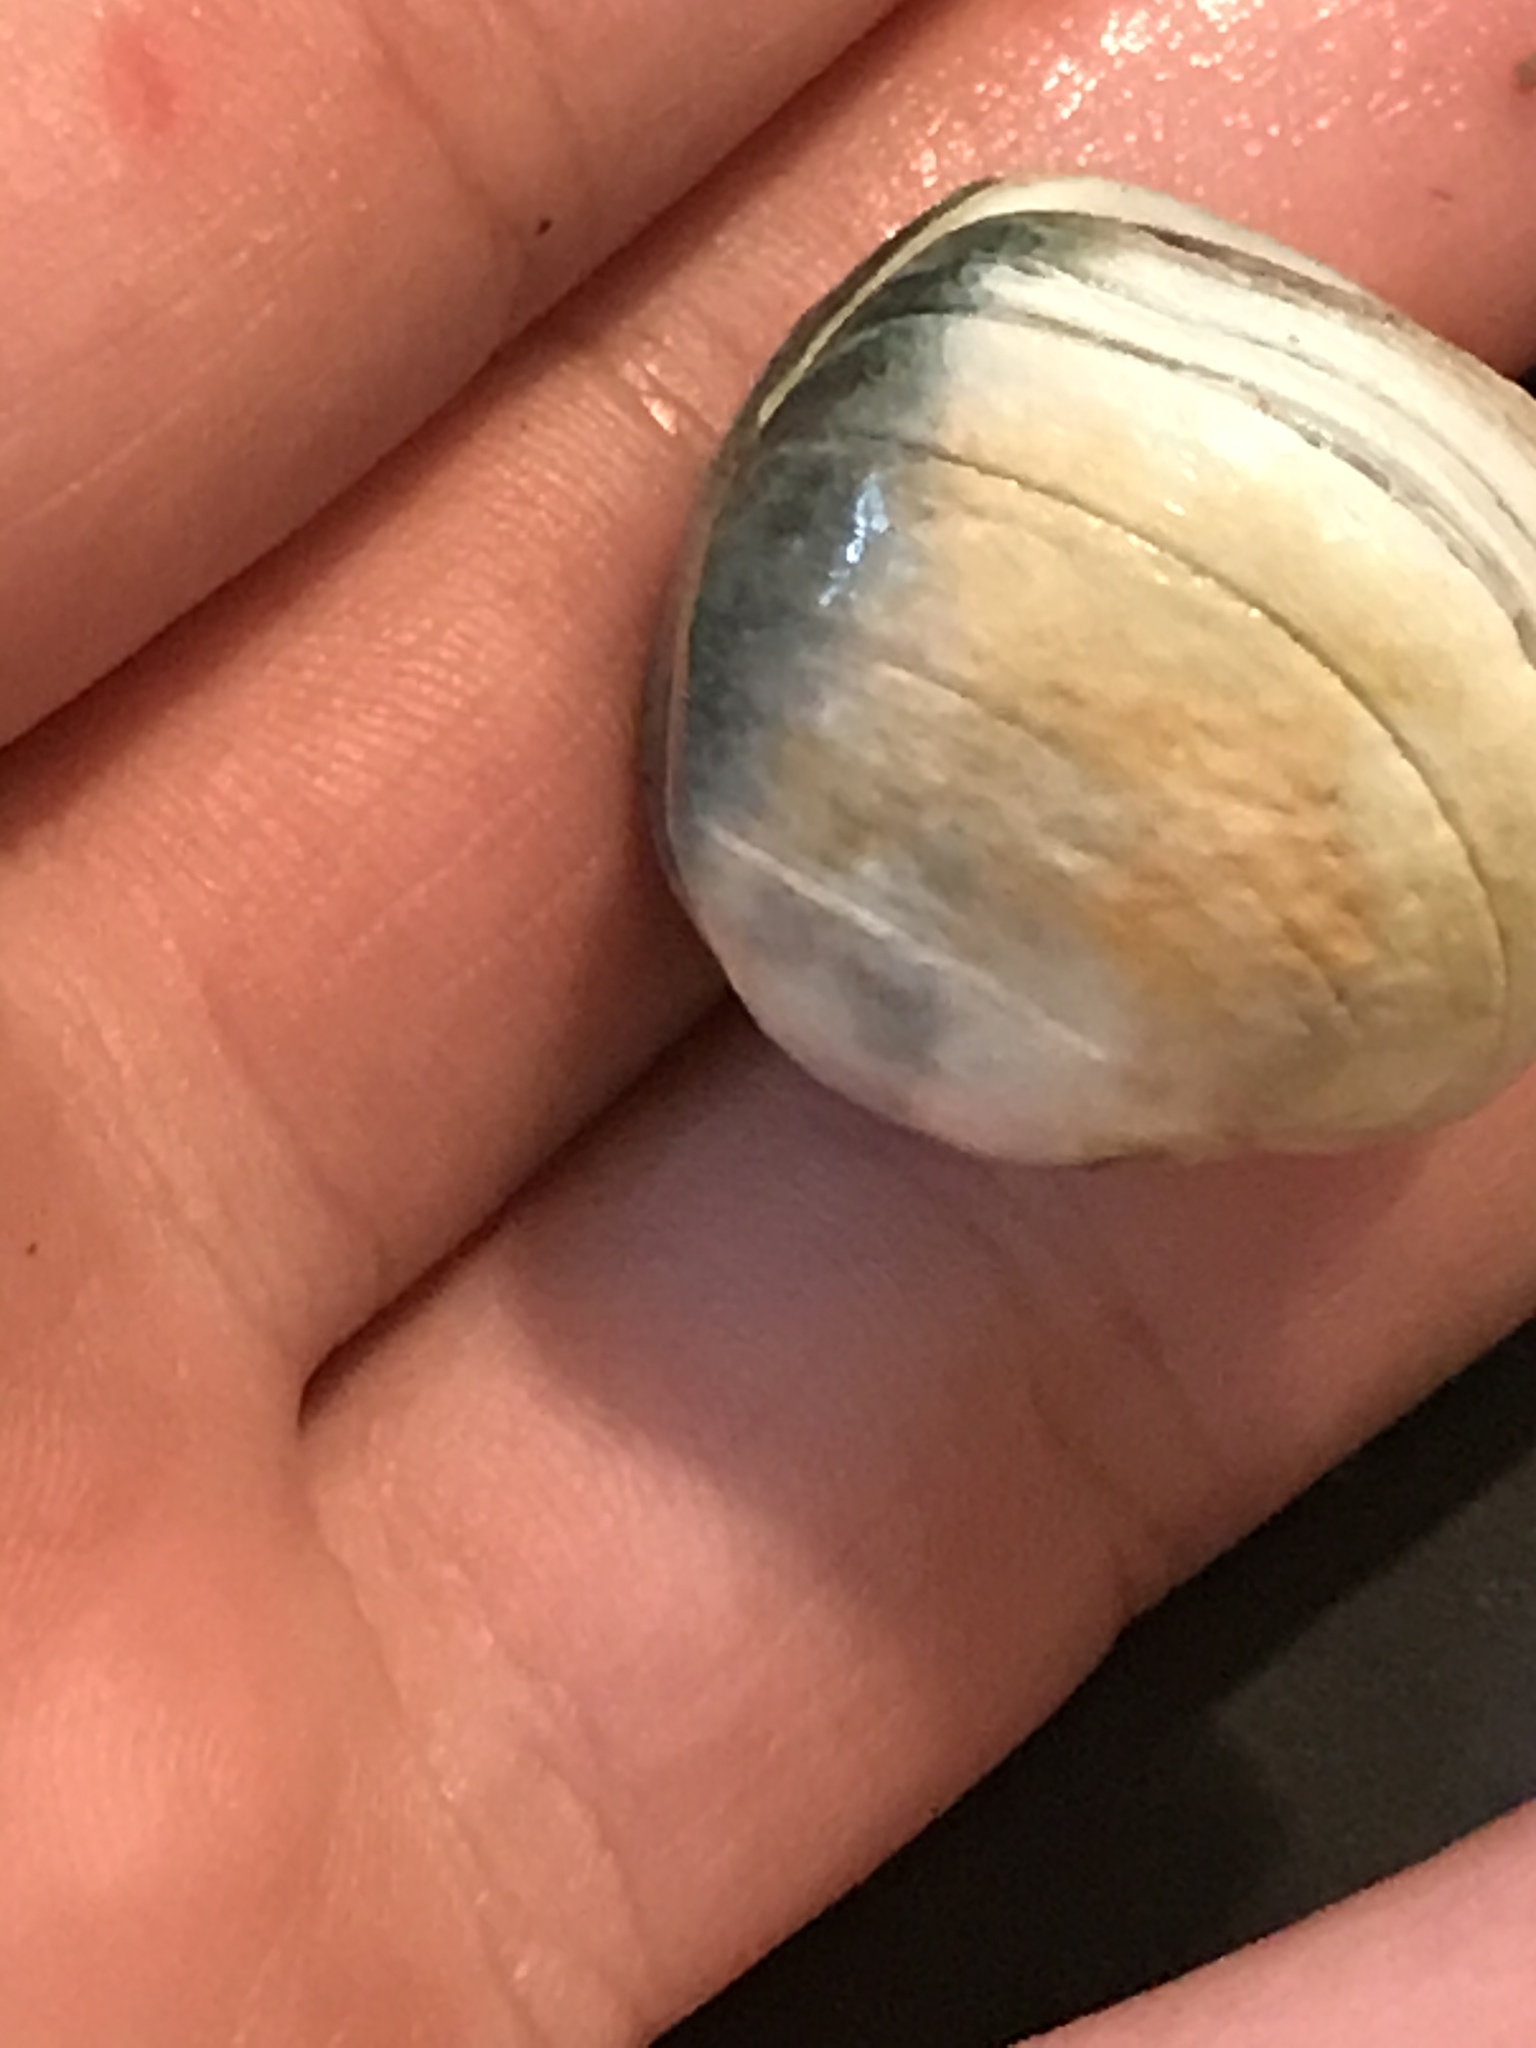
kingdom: Animalia
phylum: Mollusca
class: Bivalvia
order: Venerida
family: Veneridae
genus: Petricola
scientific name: Petricola carditoides
